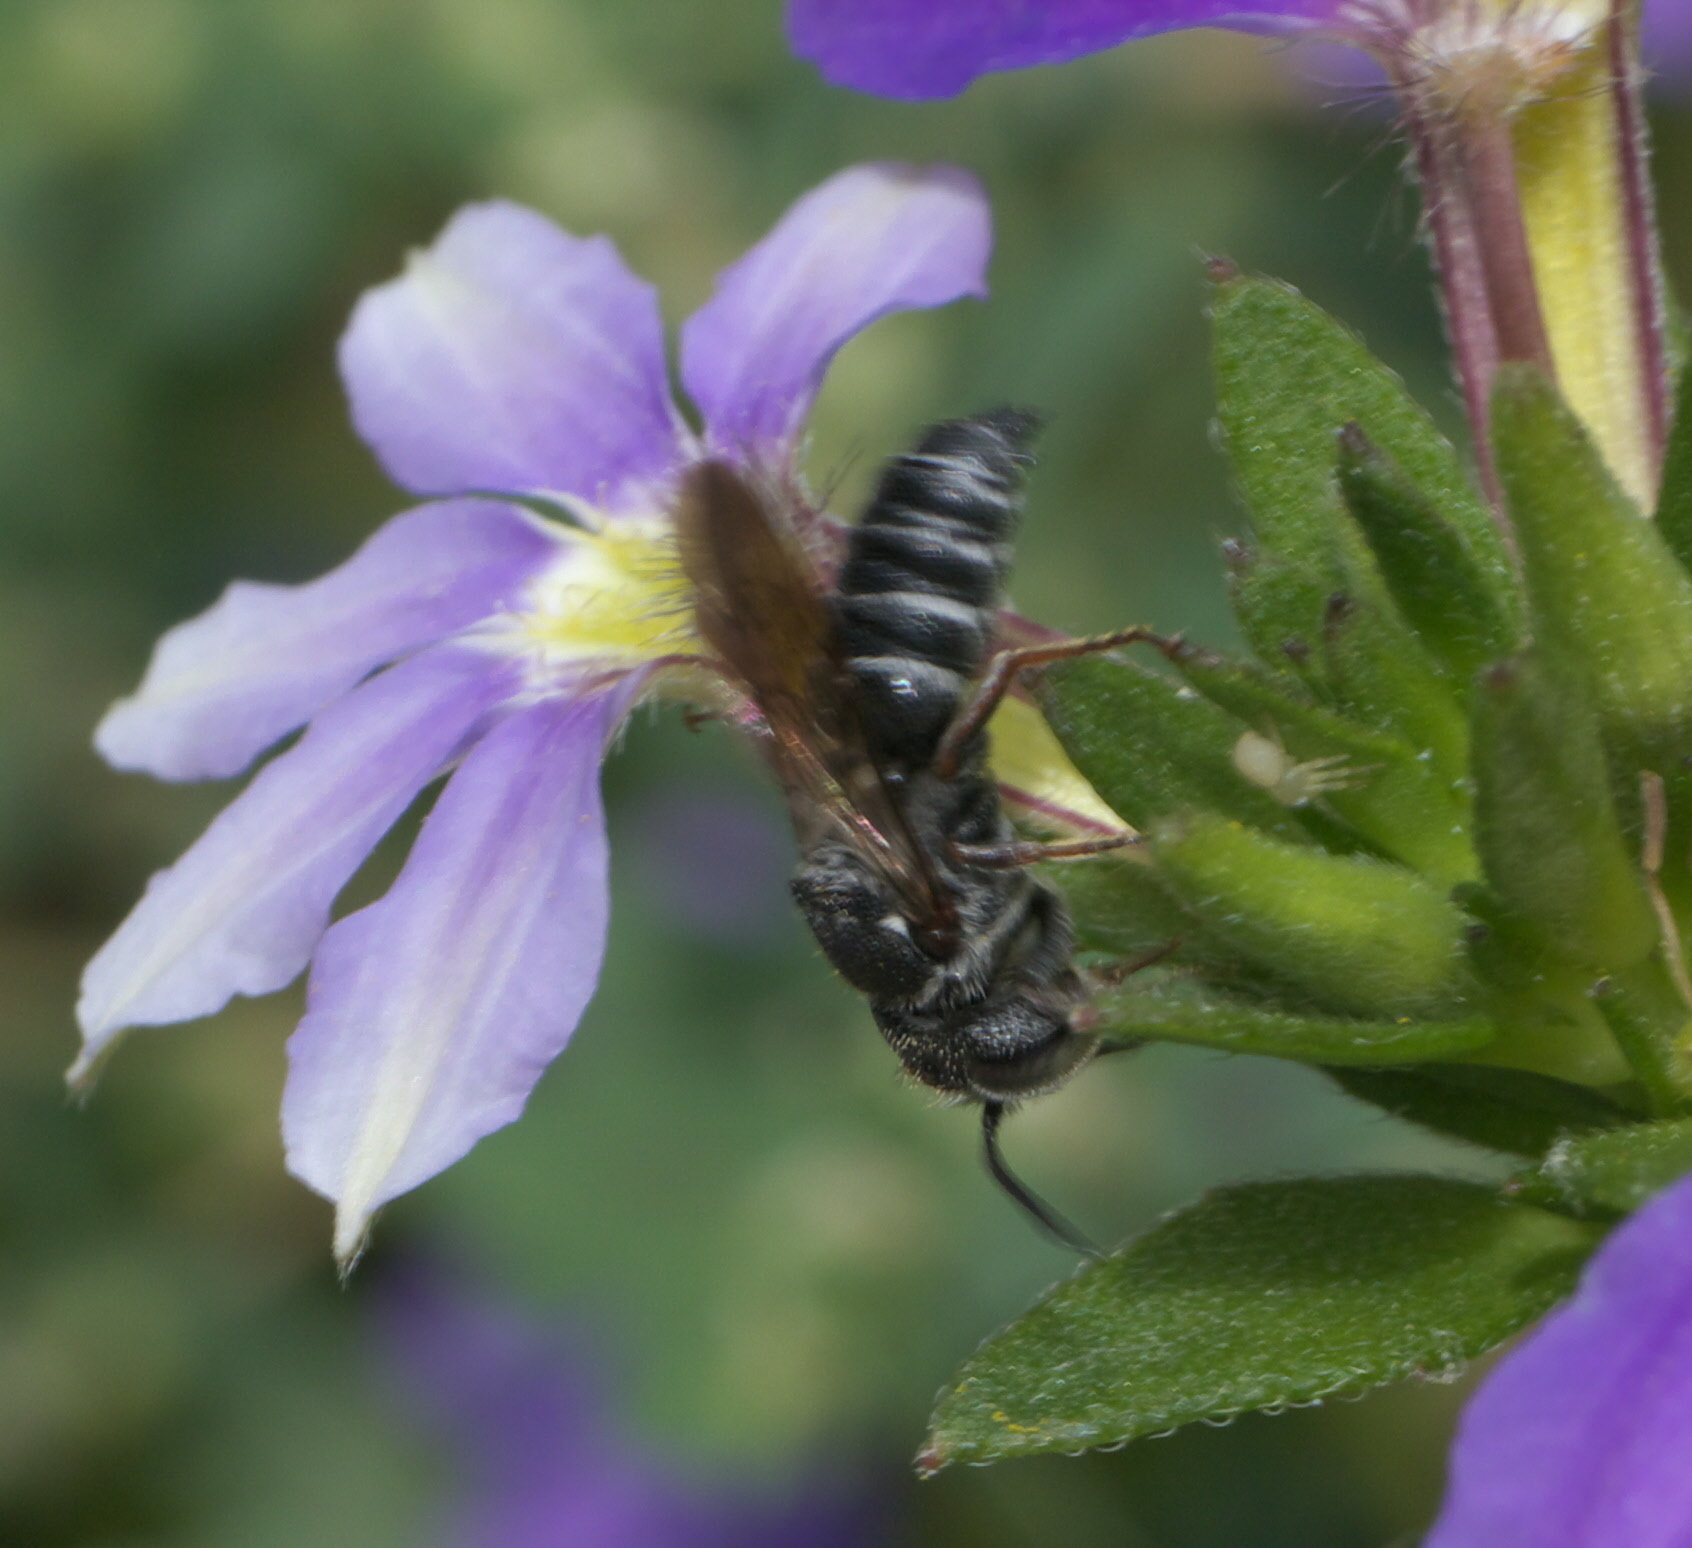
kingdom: Animalia
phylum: Arthropoda
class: Insecta
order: Hymenoptera
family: Megachilidae
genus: Coelioxys
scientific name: Coelioxys
